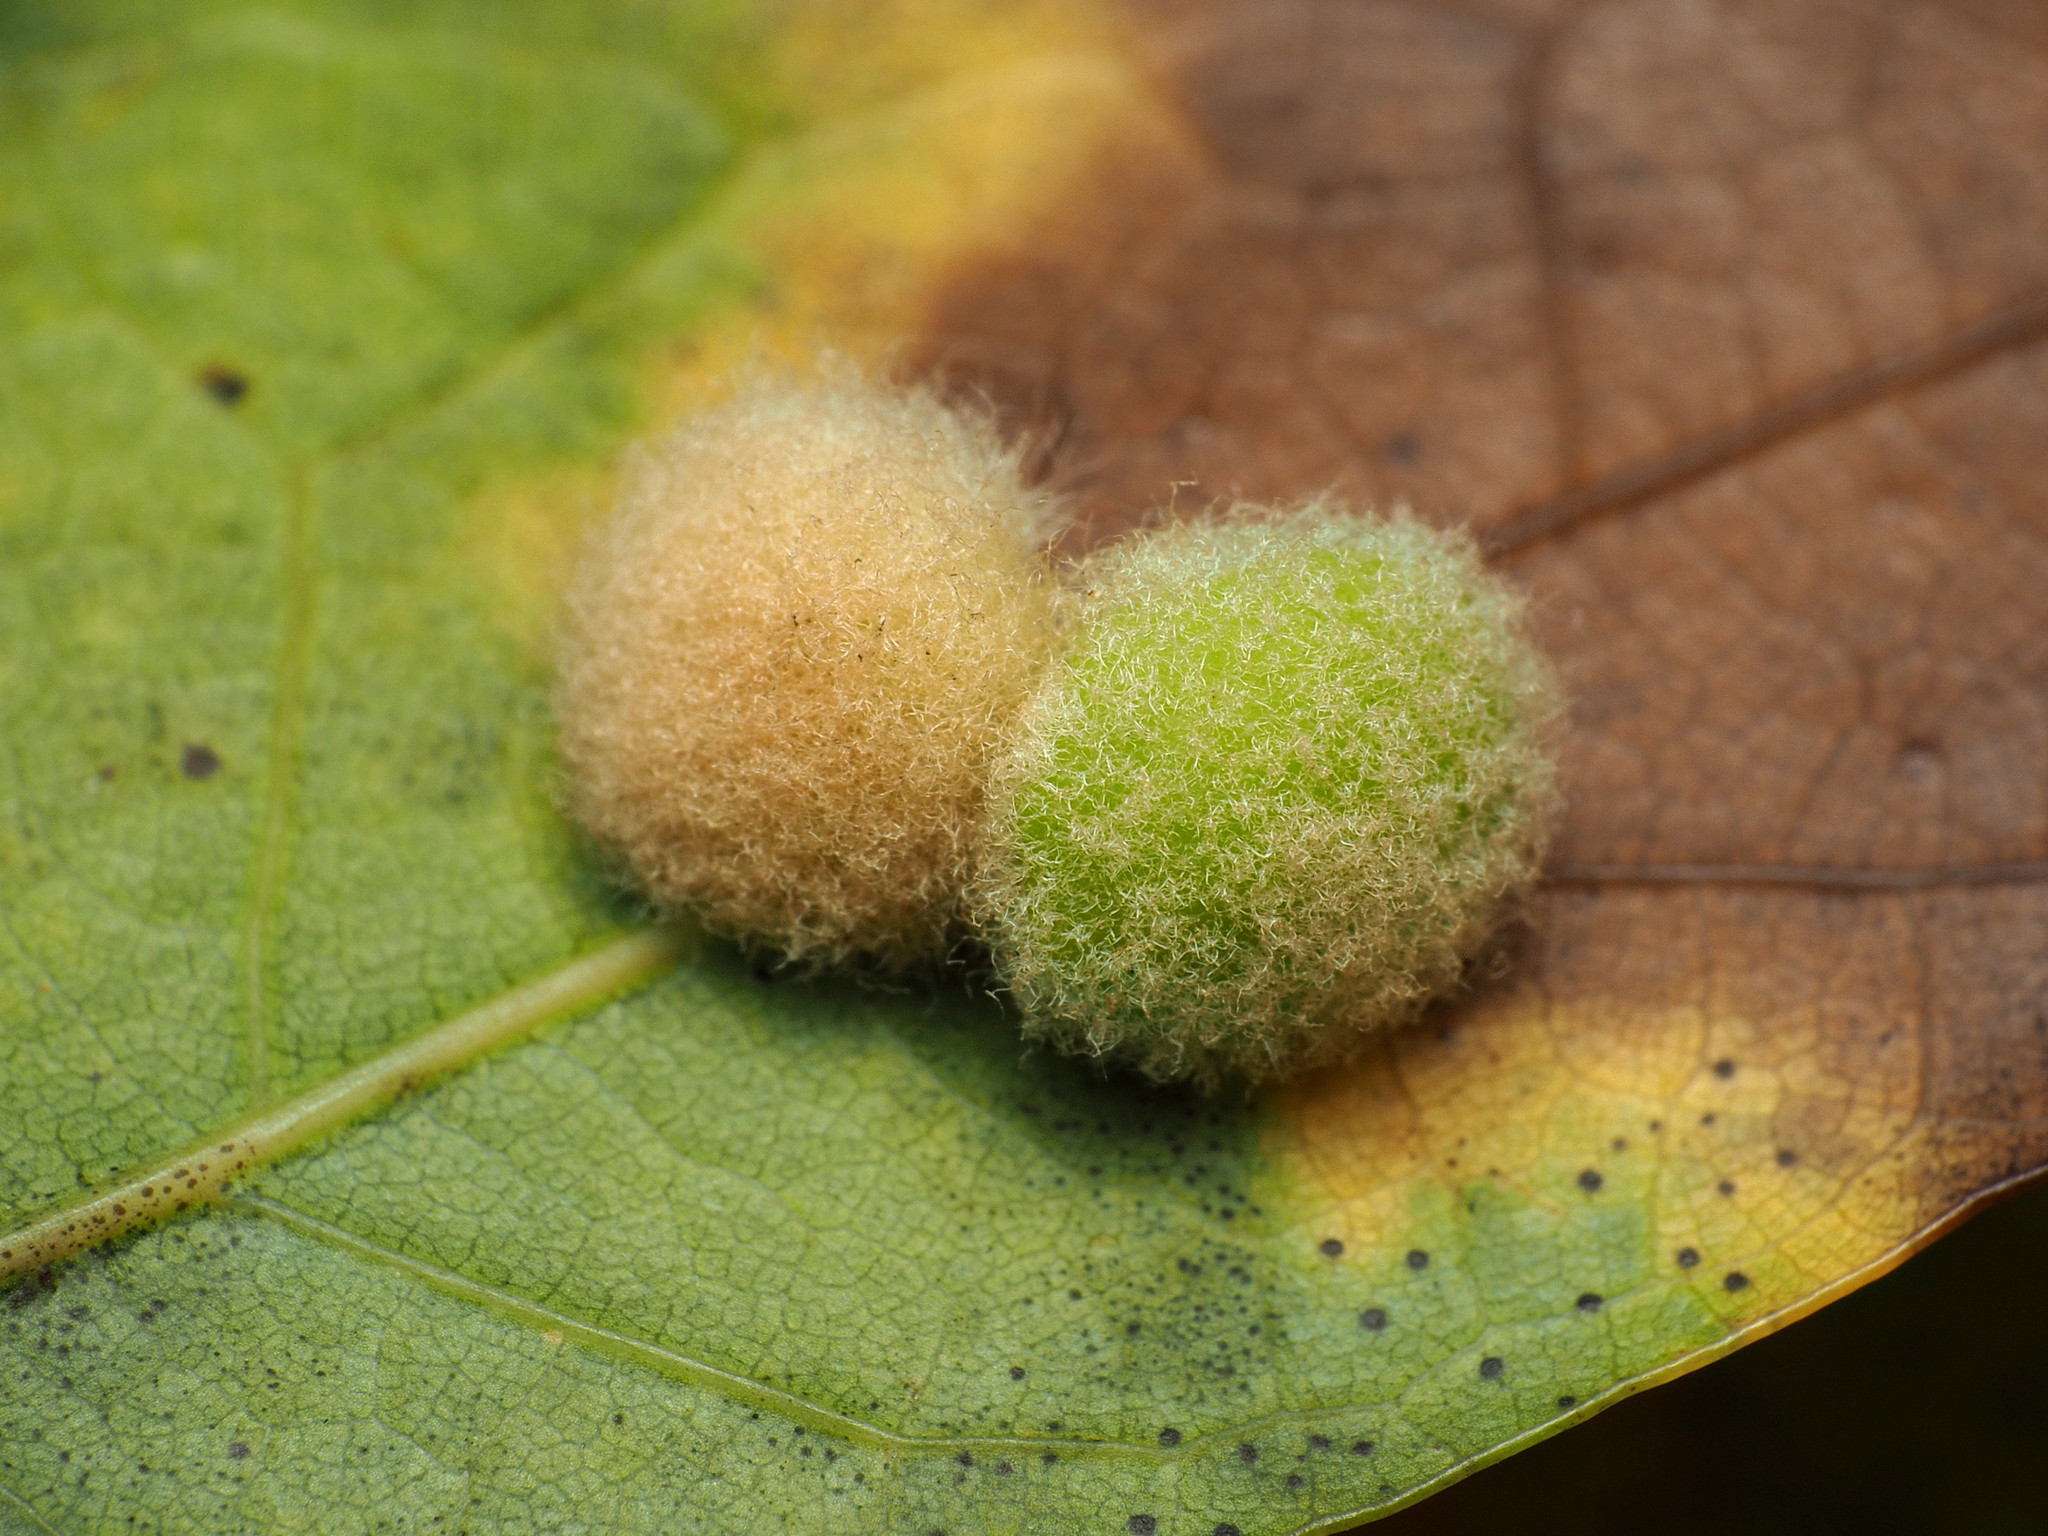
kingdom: Animalia
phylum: Arthropoda
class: Insecta
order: Hymenoptera
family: Cynipidae
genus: Callirhytis
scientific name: Callirhytis
